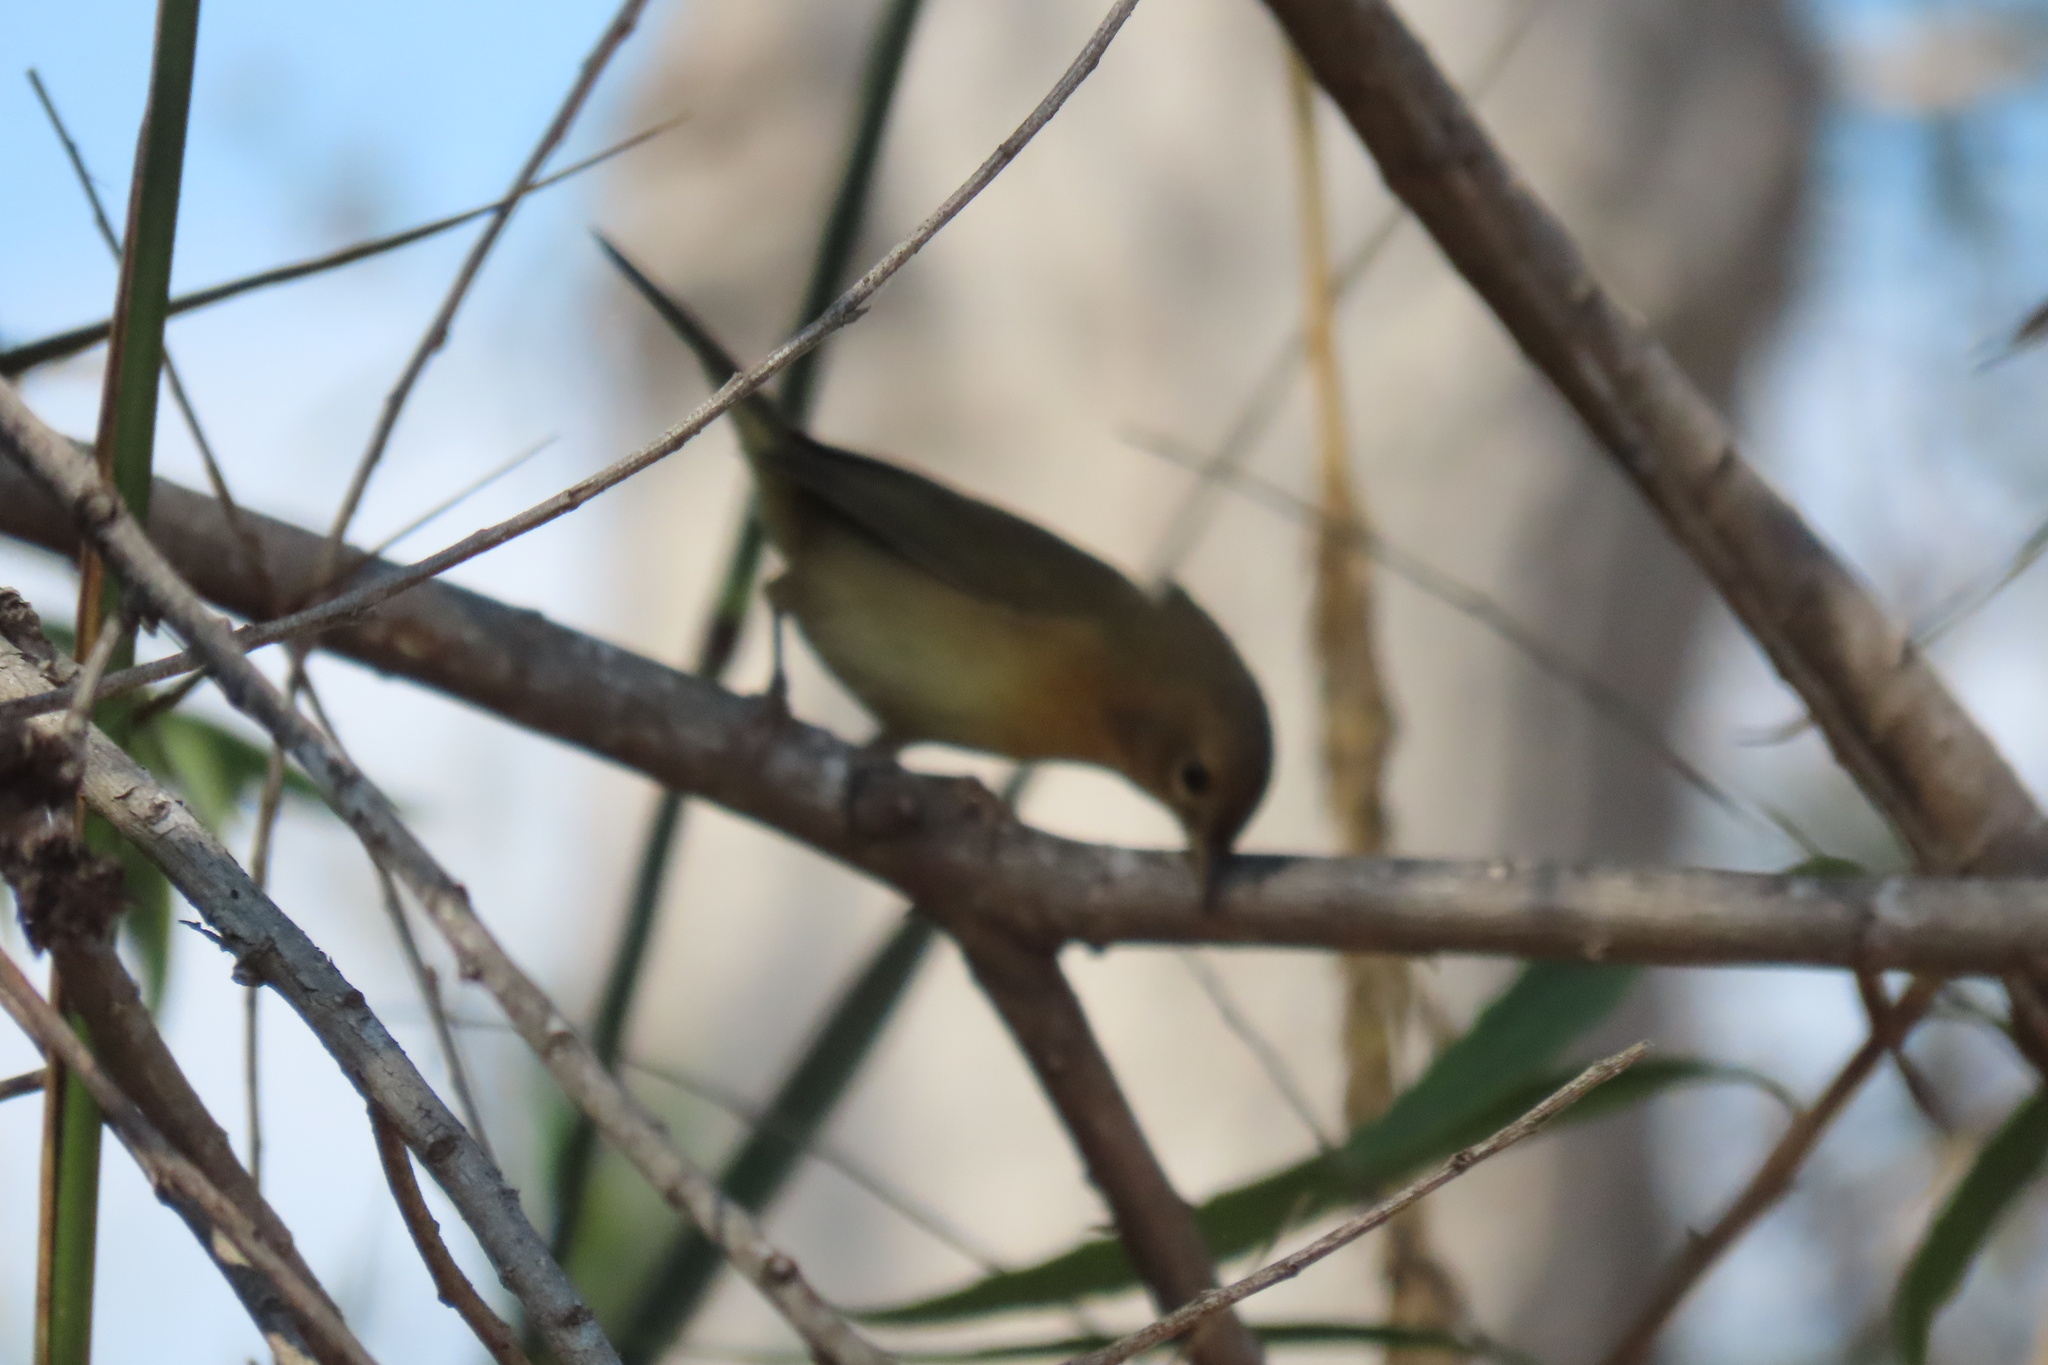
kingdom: Animalia
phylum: Chordata
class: Aves
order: Passeriformes
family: Parulidae
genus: Geothlypis
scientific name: Geothlypis trichas
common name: Common yellowthroat
